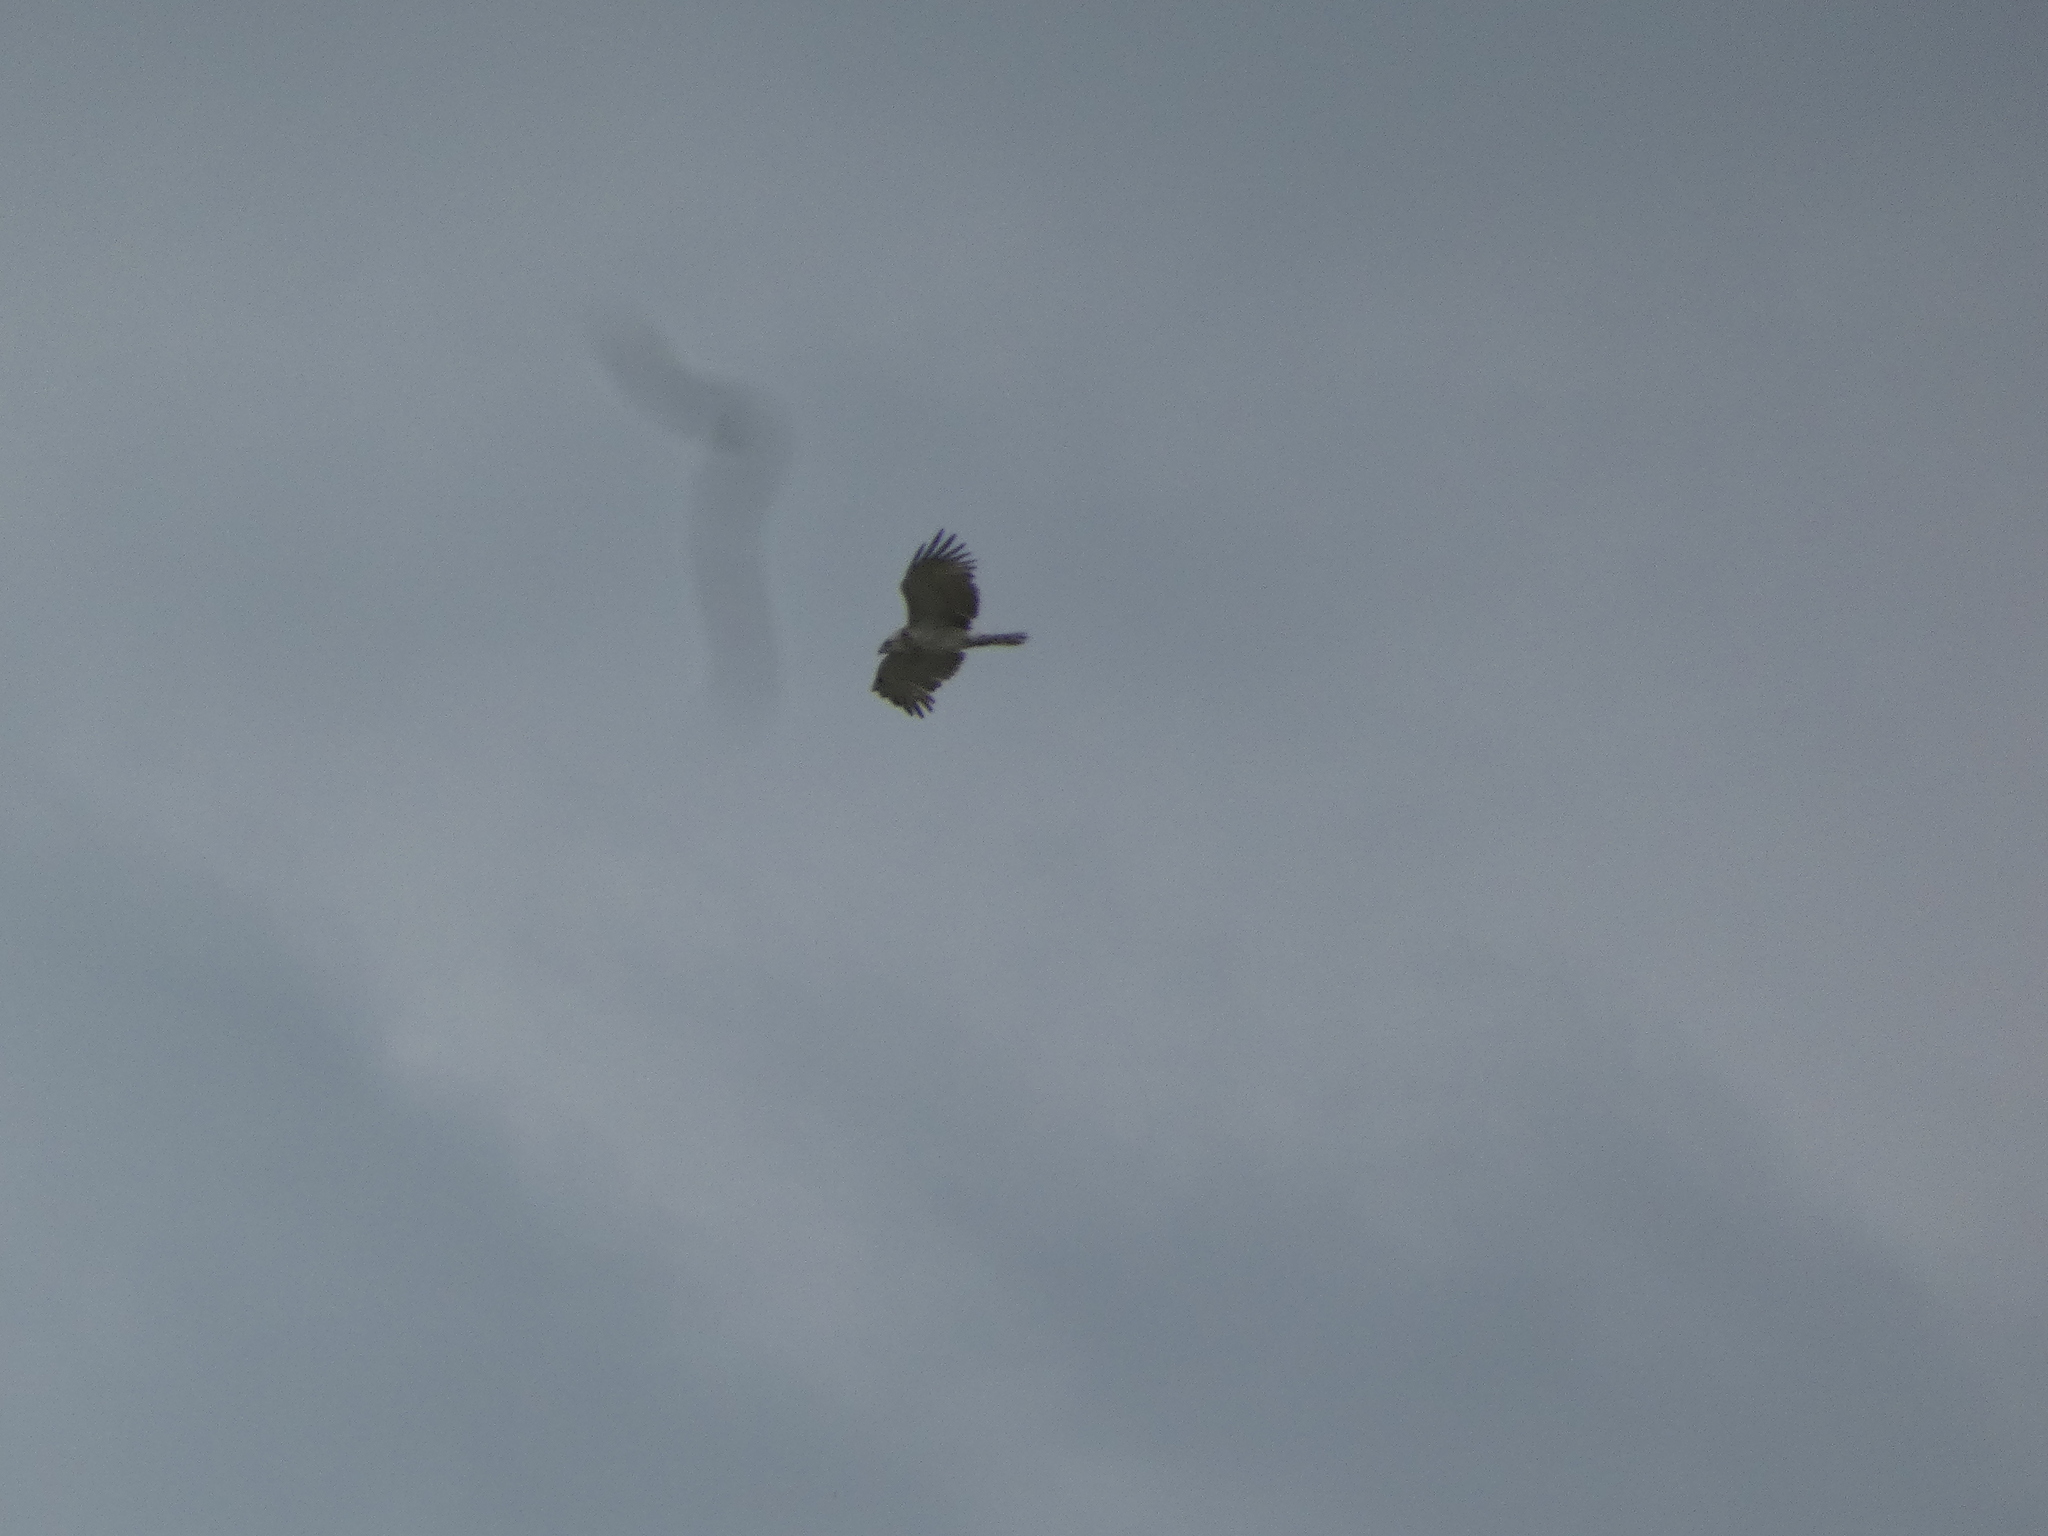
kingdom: Animalia
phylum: Chordata
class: Aves
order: Accipitriformes
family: Accipitridae
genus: Circaetus
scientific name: Circaetus gallicus
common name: Short-toed snake eagle
